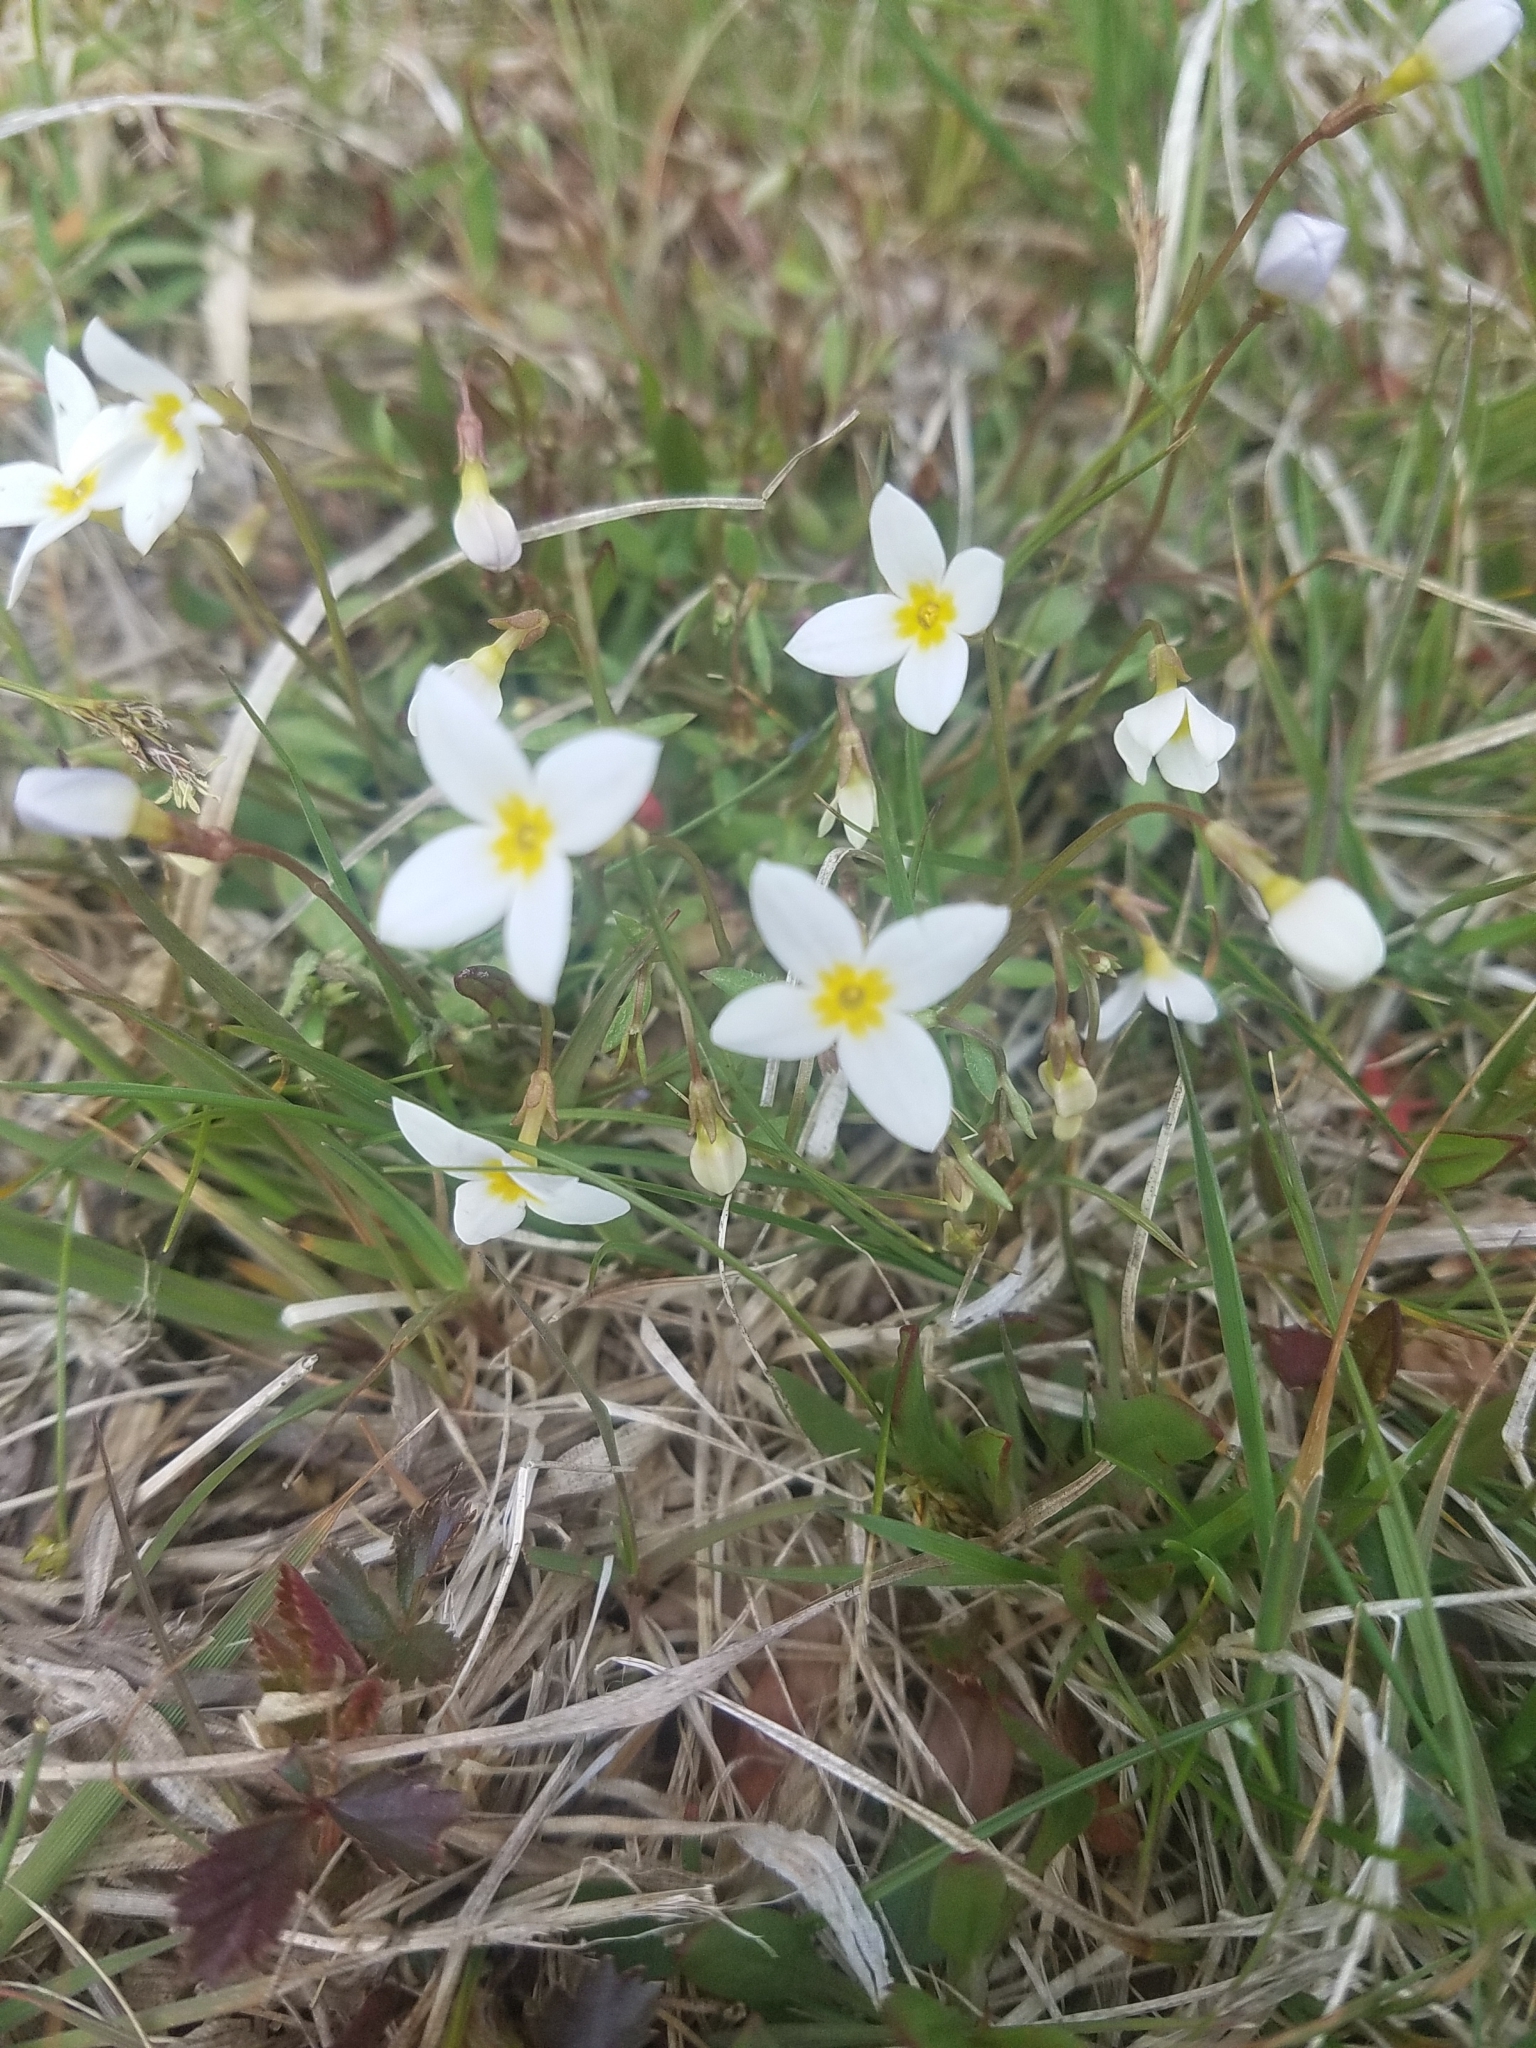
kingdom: Plantae
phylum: Tracheophyta
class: Magnoliopsida
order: Gentianales
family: Rubiaceae
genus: Houstonia
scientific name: Houstonia caerulea
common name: Bluets
